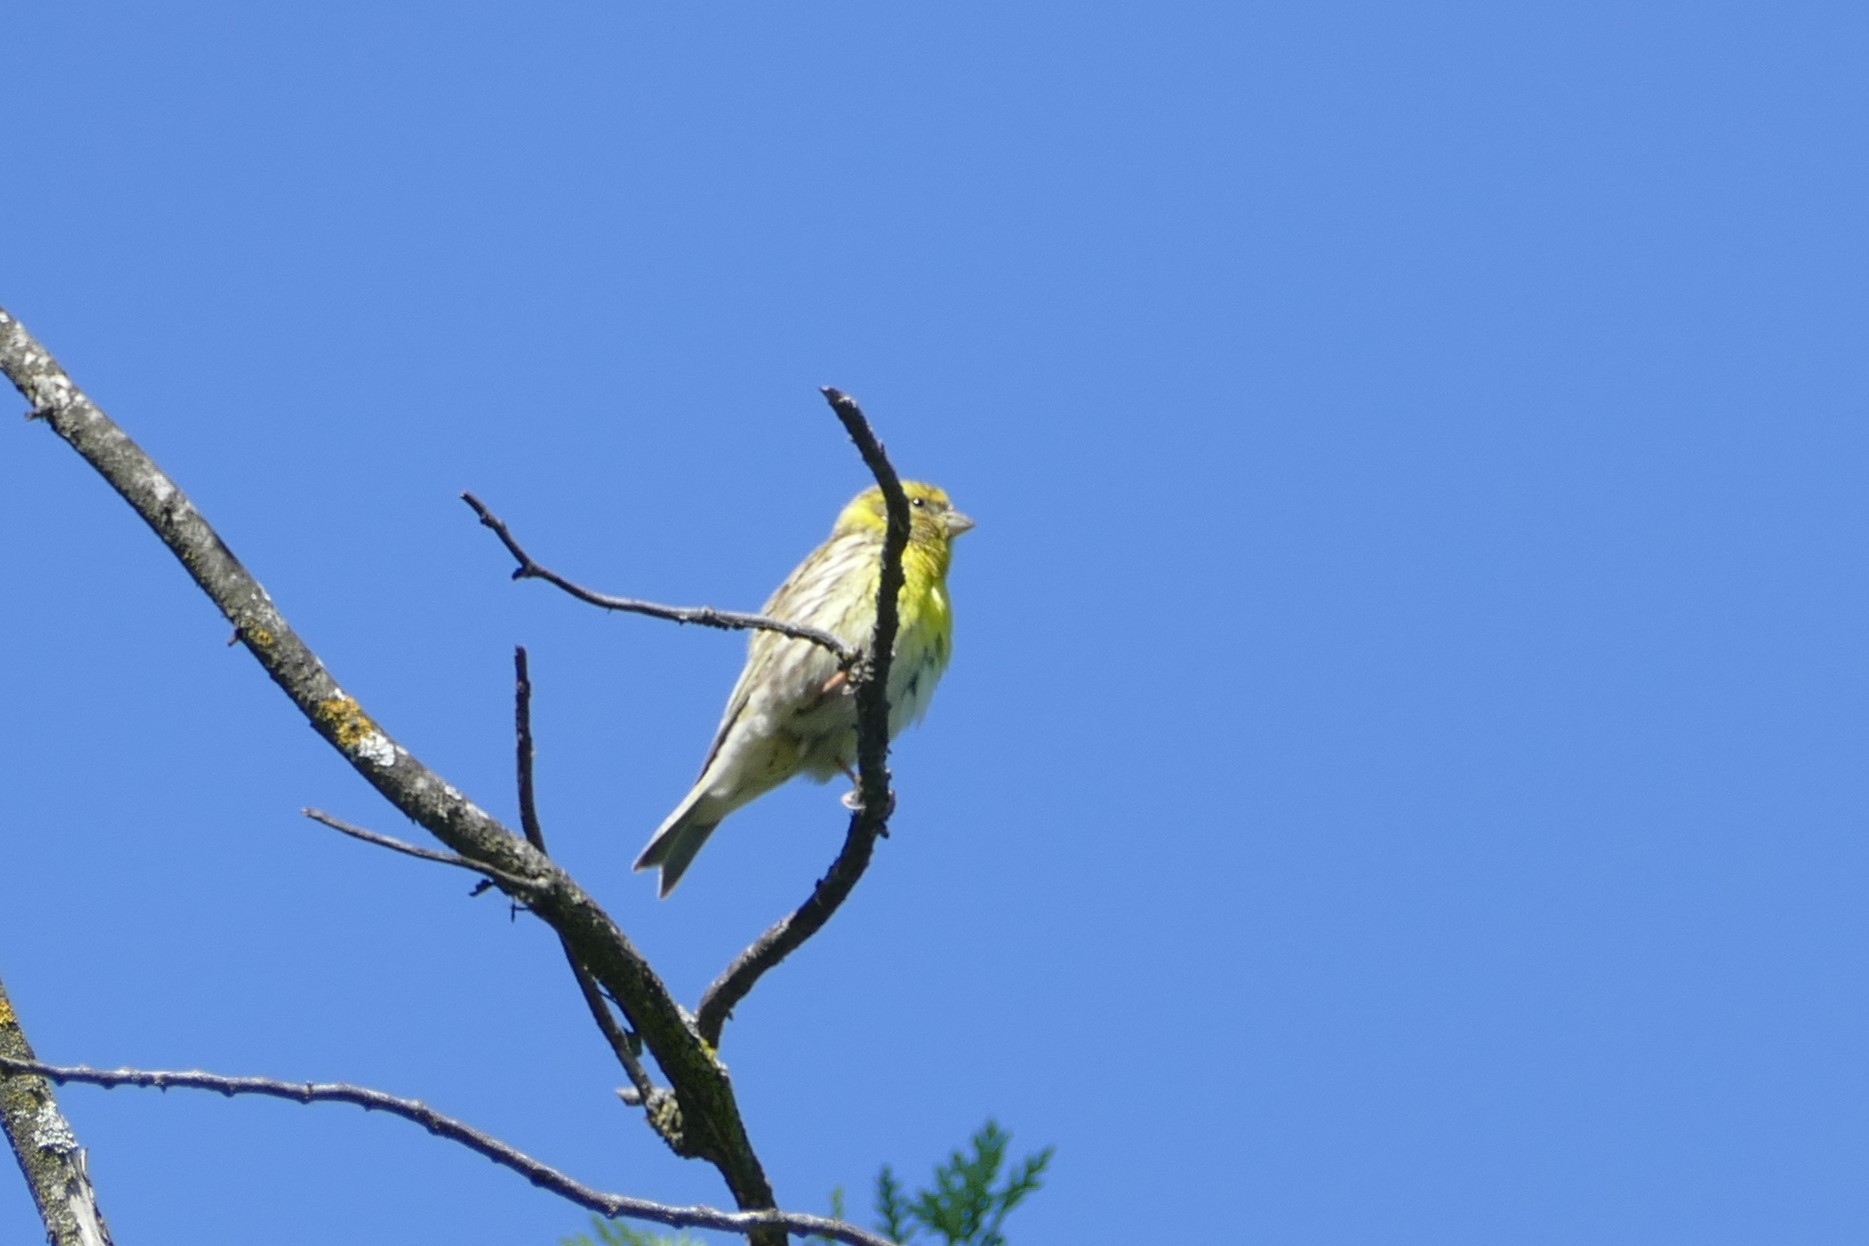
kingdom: Animalia
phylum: Chordata
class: Aves
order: Passeriformes
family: Fringillidae
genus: Serinus
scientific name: Serinus serinus
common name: European serin
